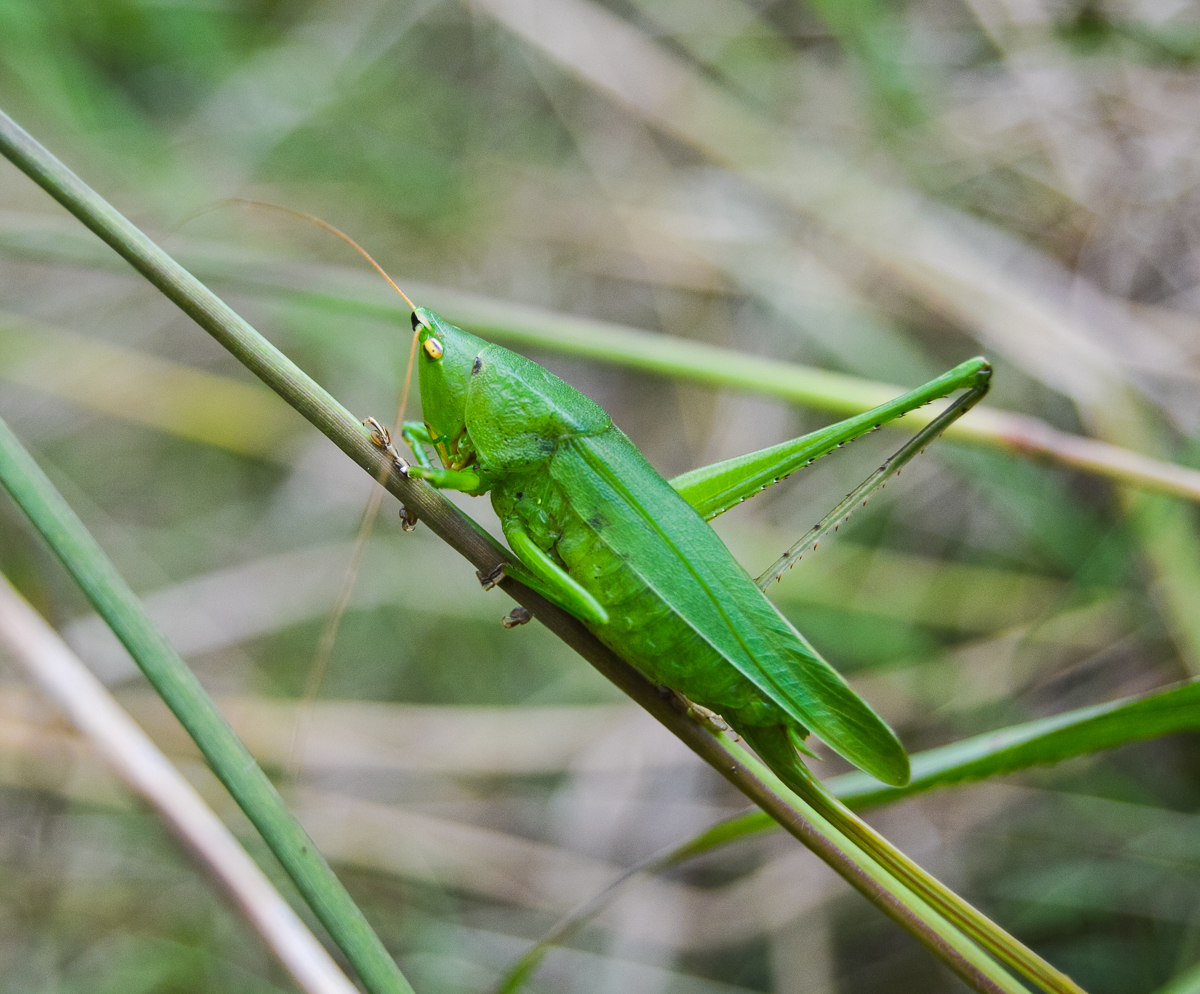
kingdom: Animalia
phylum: Arthropoda
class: Insecta
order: Orthoptera
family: Tettigoniidae
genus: Neoconocephalus
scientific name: Neoconocephalus brevis
